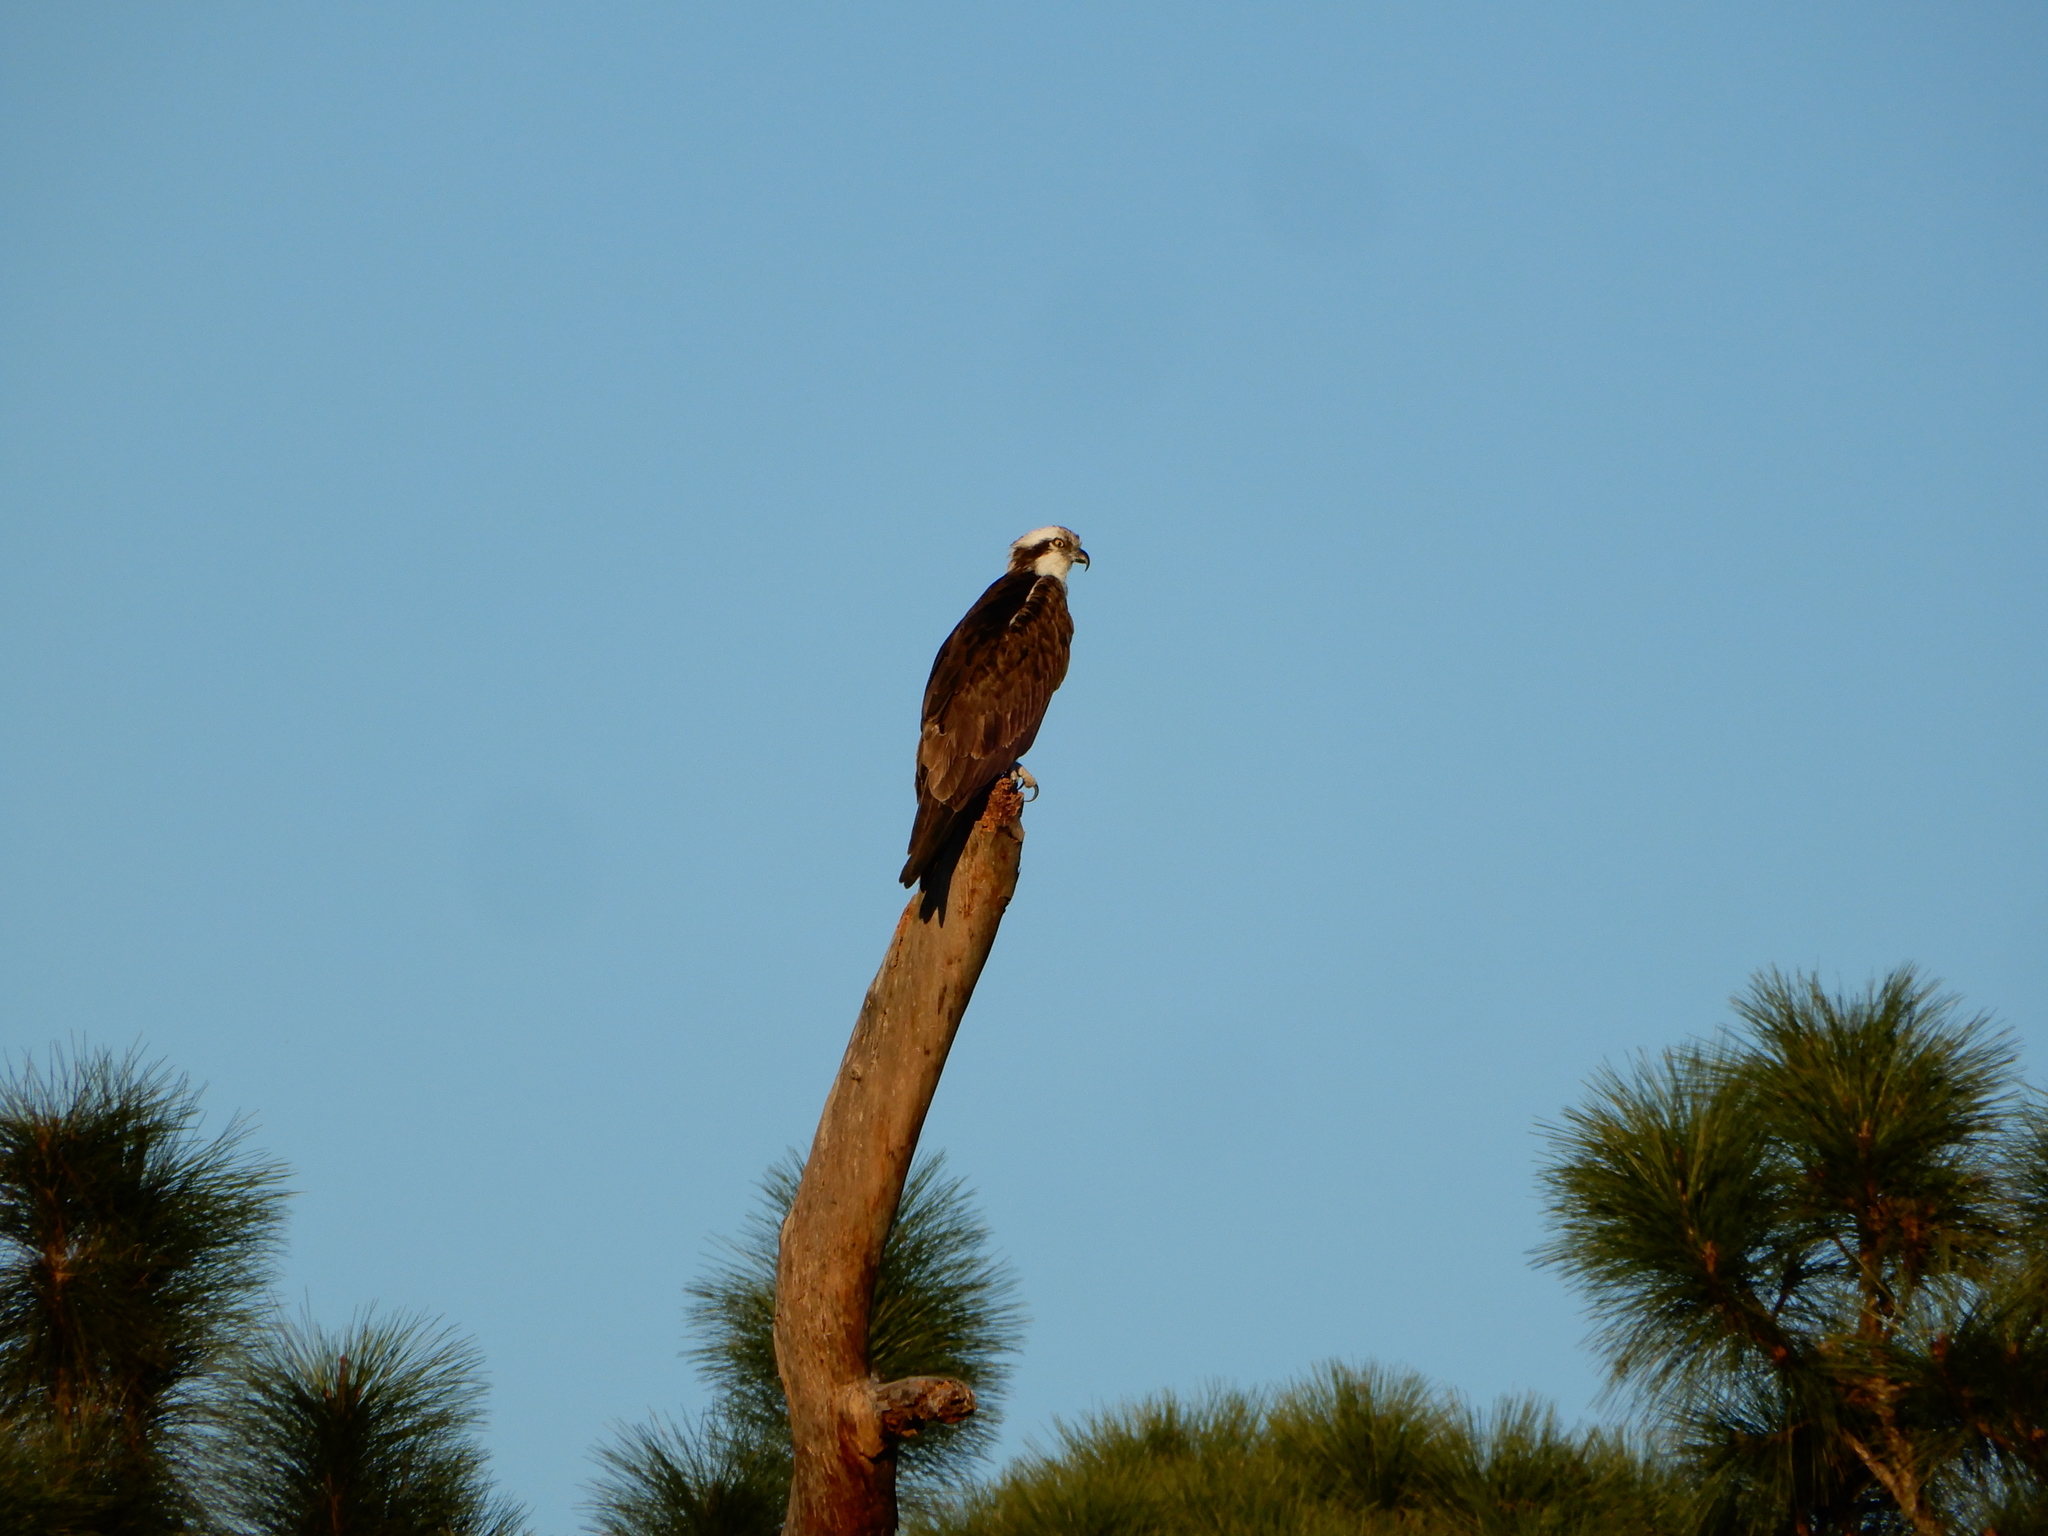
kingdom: Animalia
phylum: Chordata
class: Aves
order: Accipitriformes
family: Pandionidae
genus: Pandion
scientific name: Pandion haliaetus
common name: Osprey
